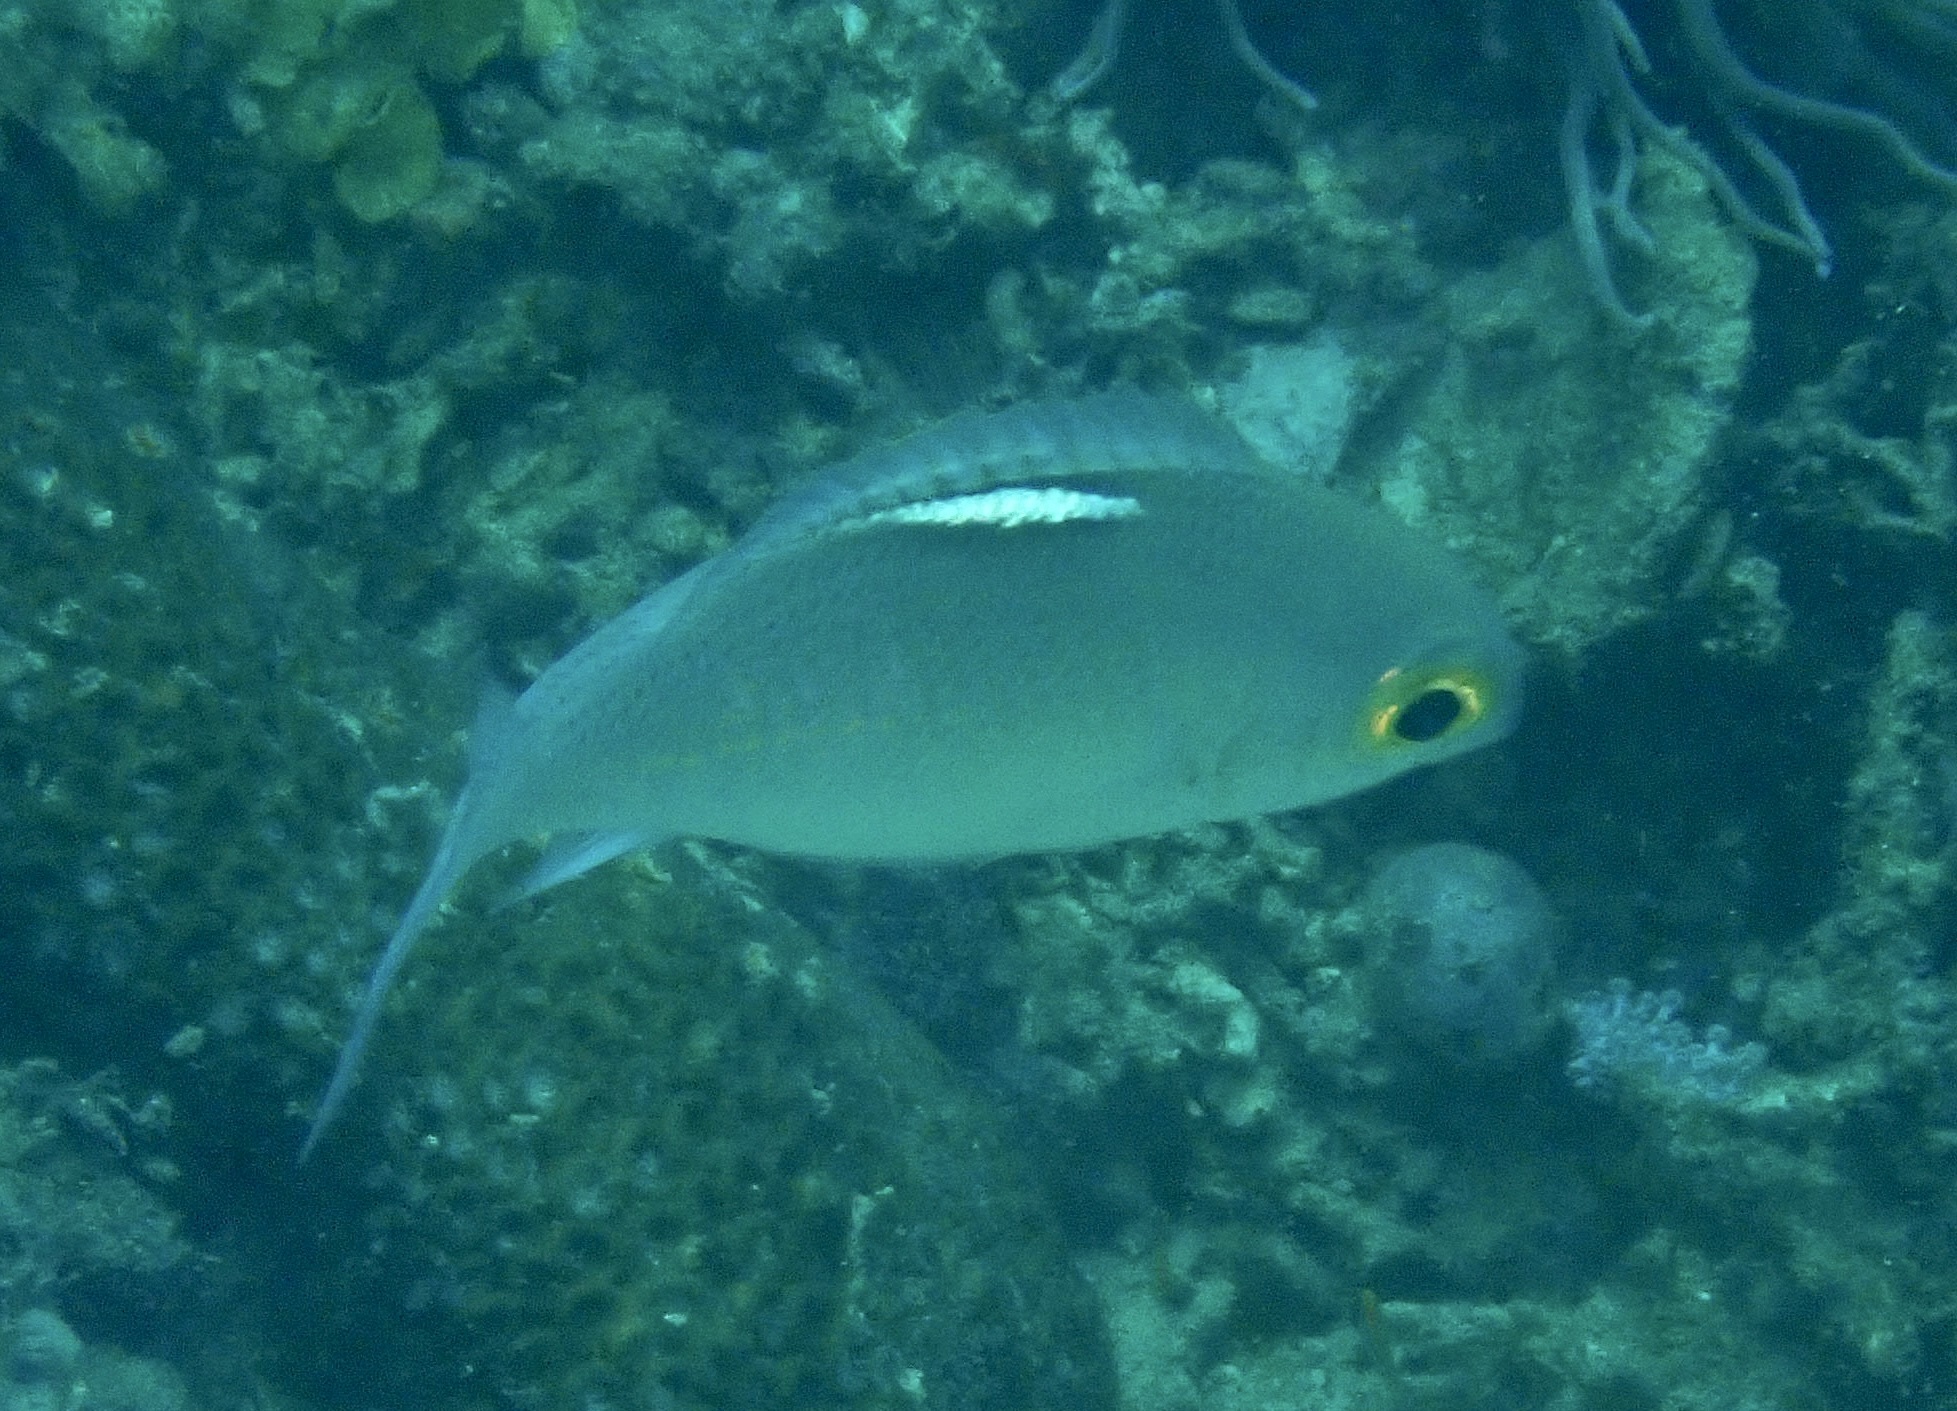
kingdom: Animalia
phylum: Chordata
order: Perciformes
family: Nemipteridae
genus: Scolopsis
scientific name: Scolopsis ciliata
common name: Ciliate spinecheek
